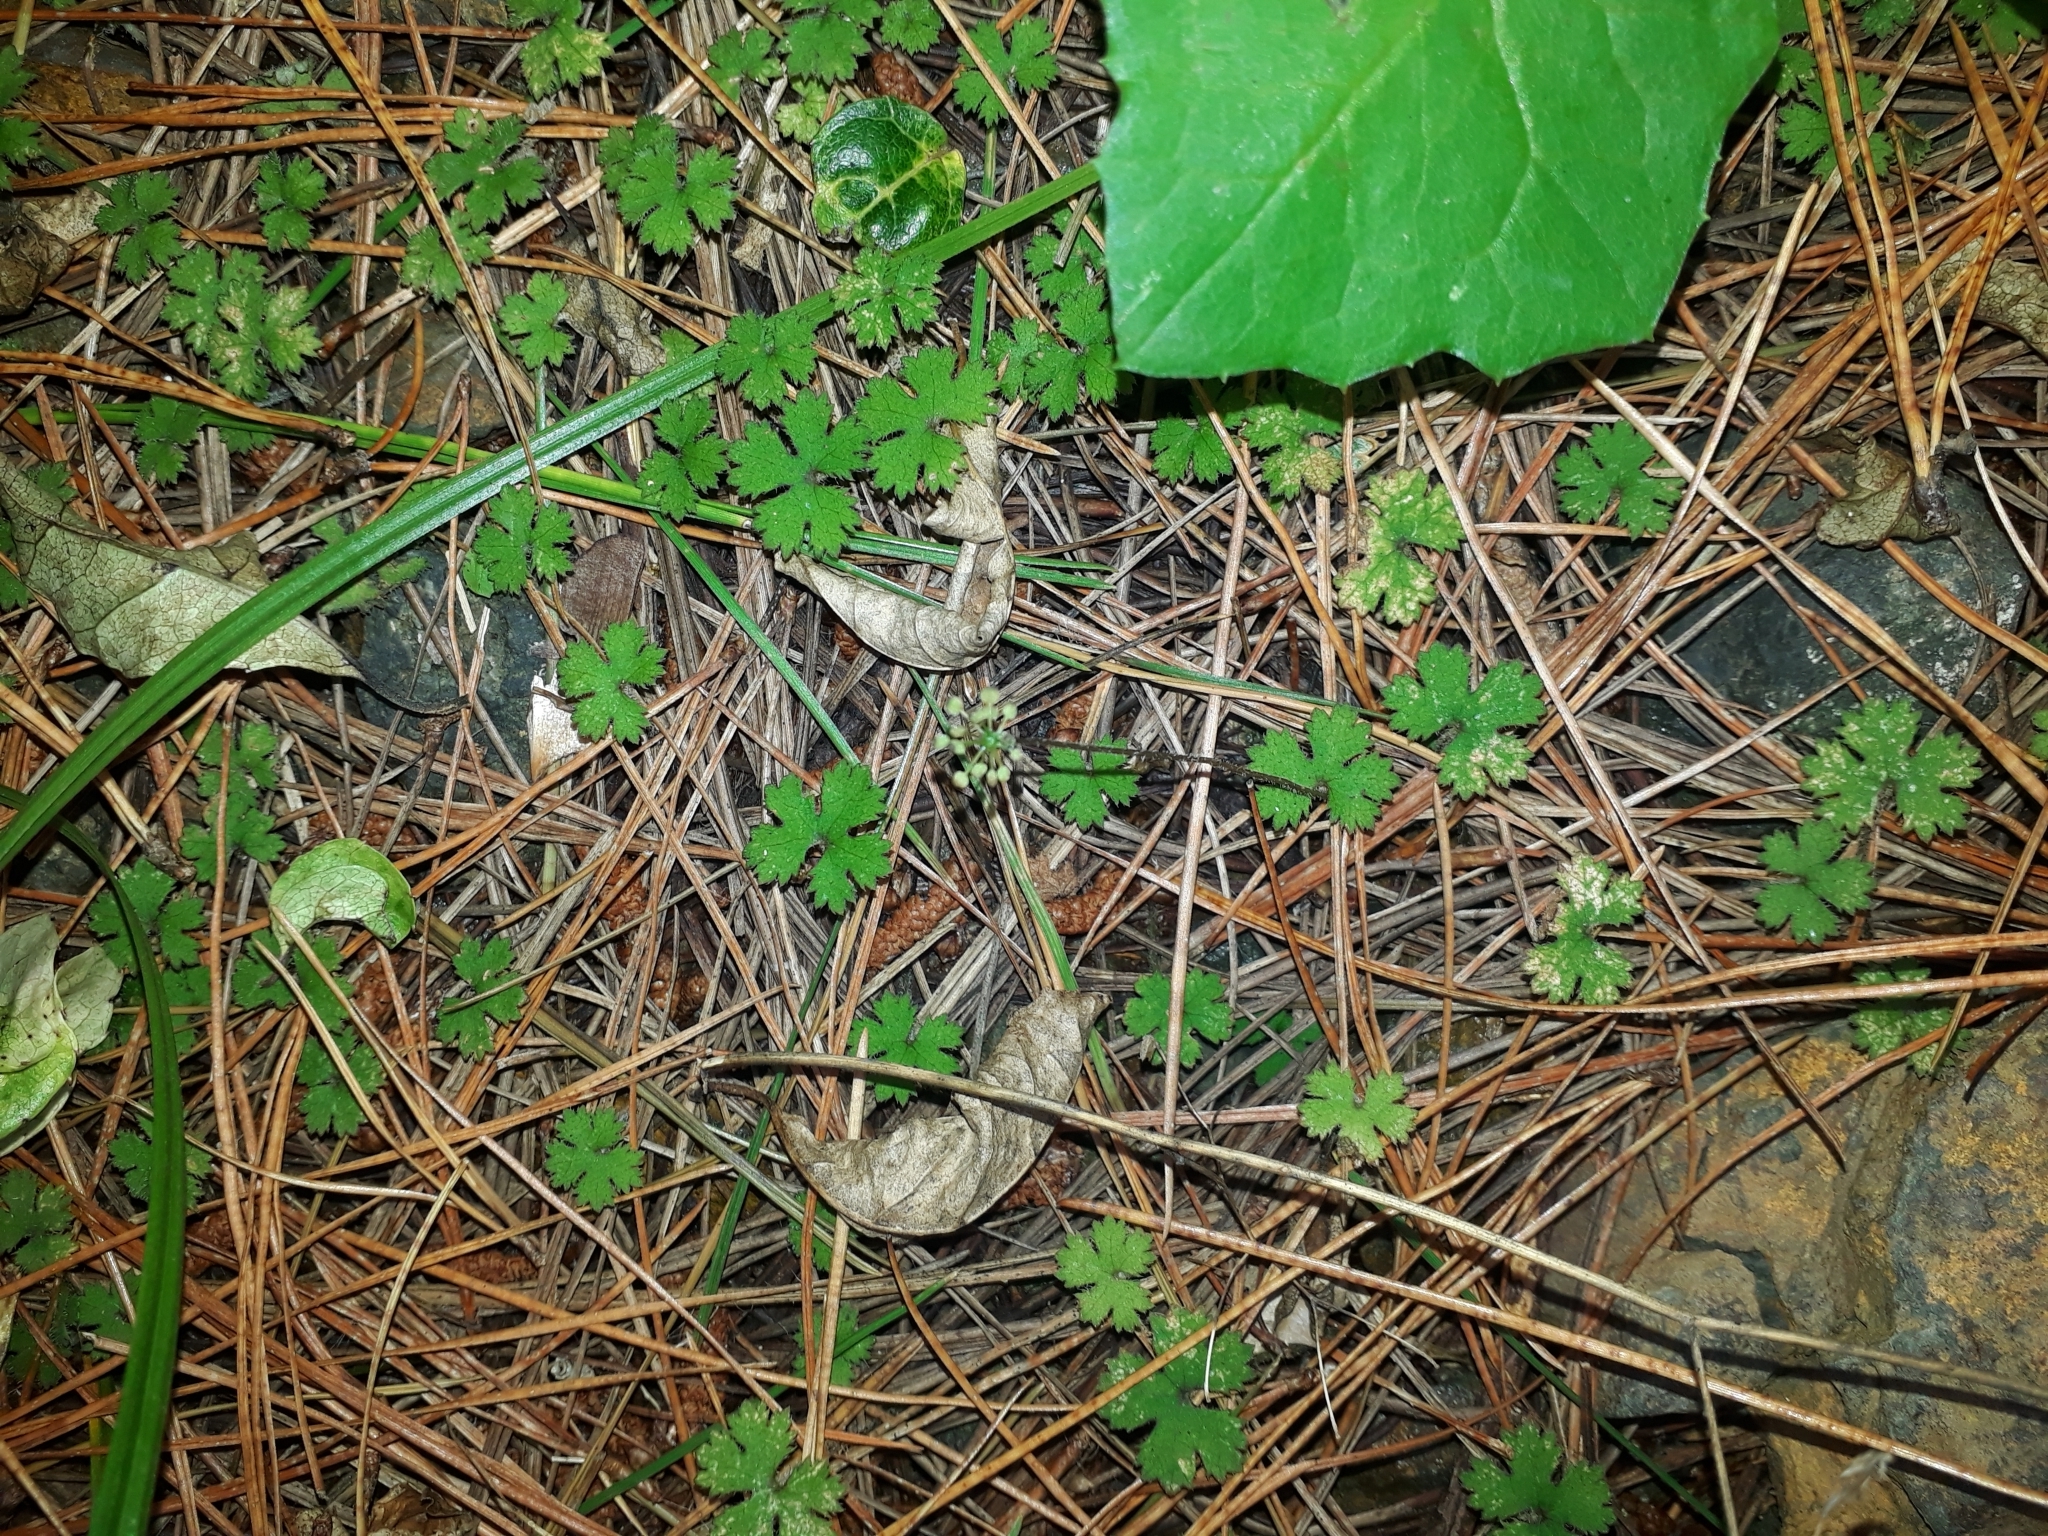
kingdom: Plantae
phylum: Tracheophyta
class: Magnoliopsida
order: Apiales
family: Araliaceae
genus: Hydrocotyle
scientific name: Hydrocotyle elongata
